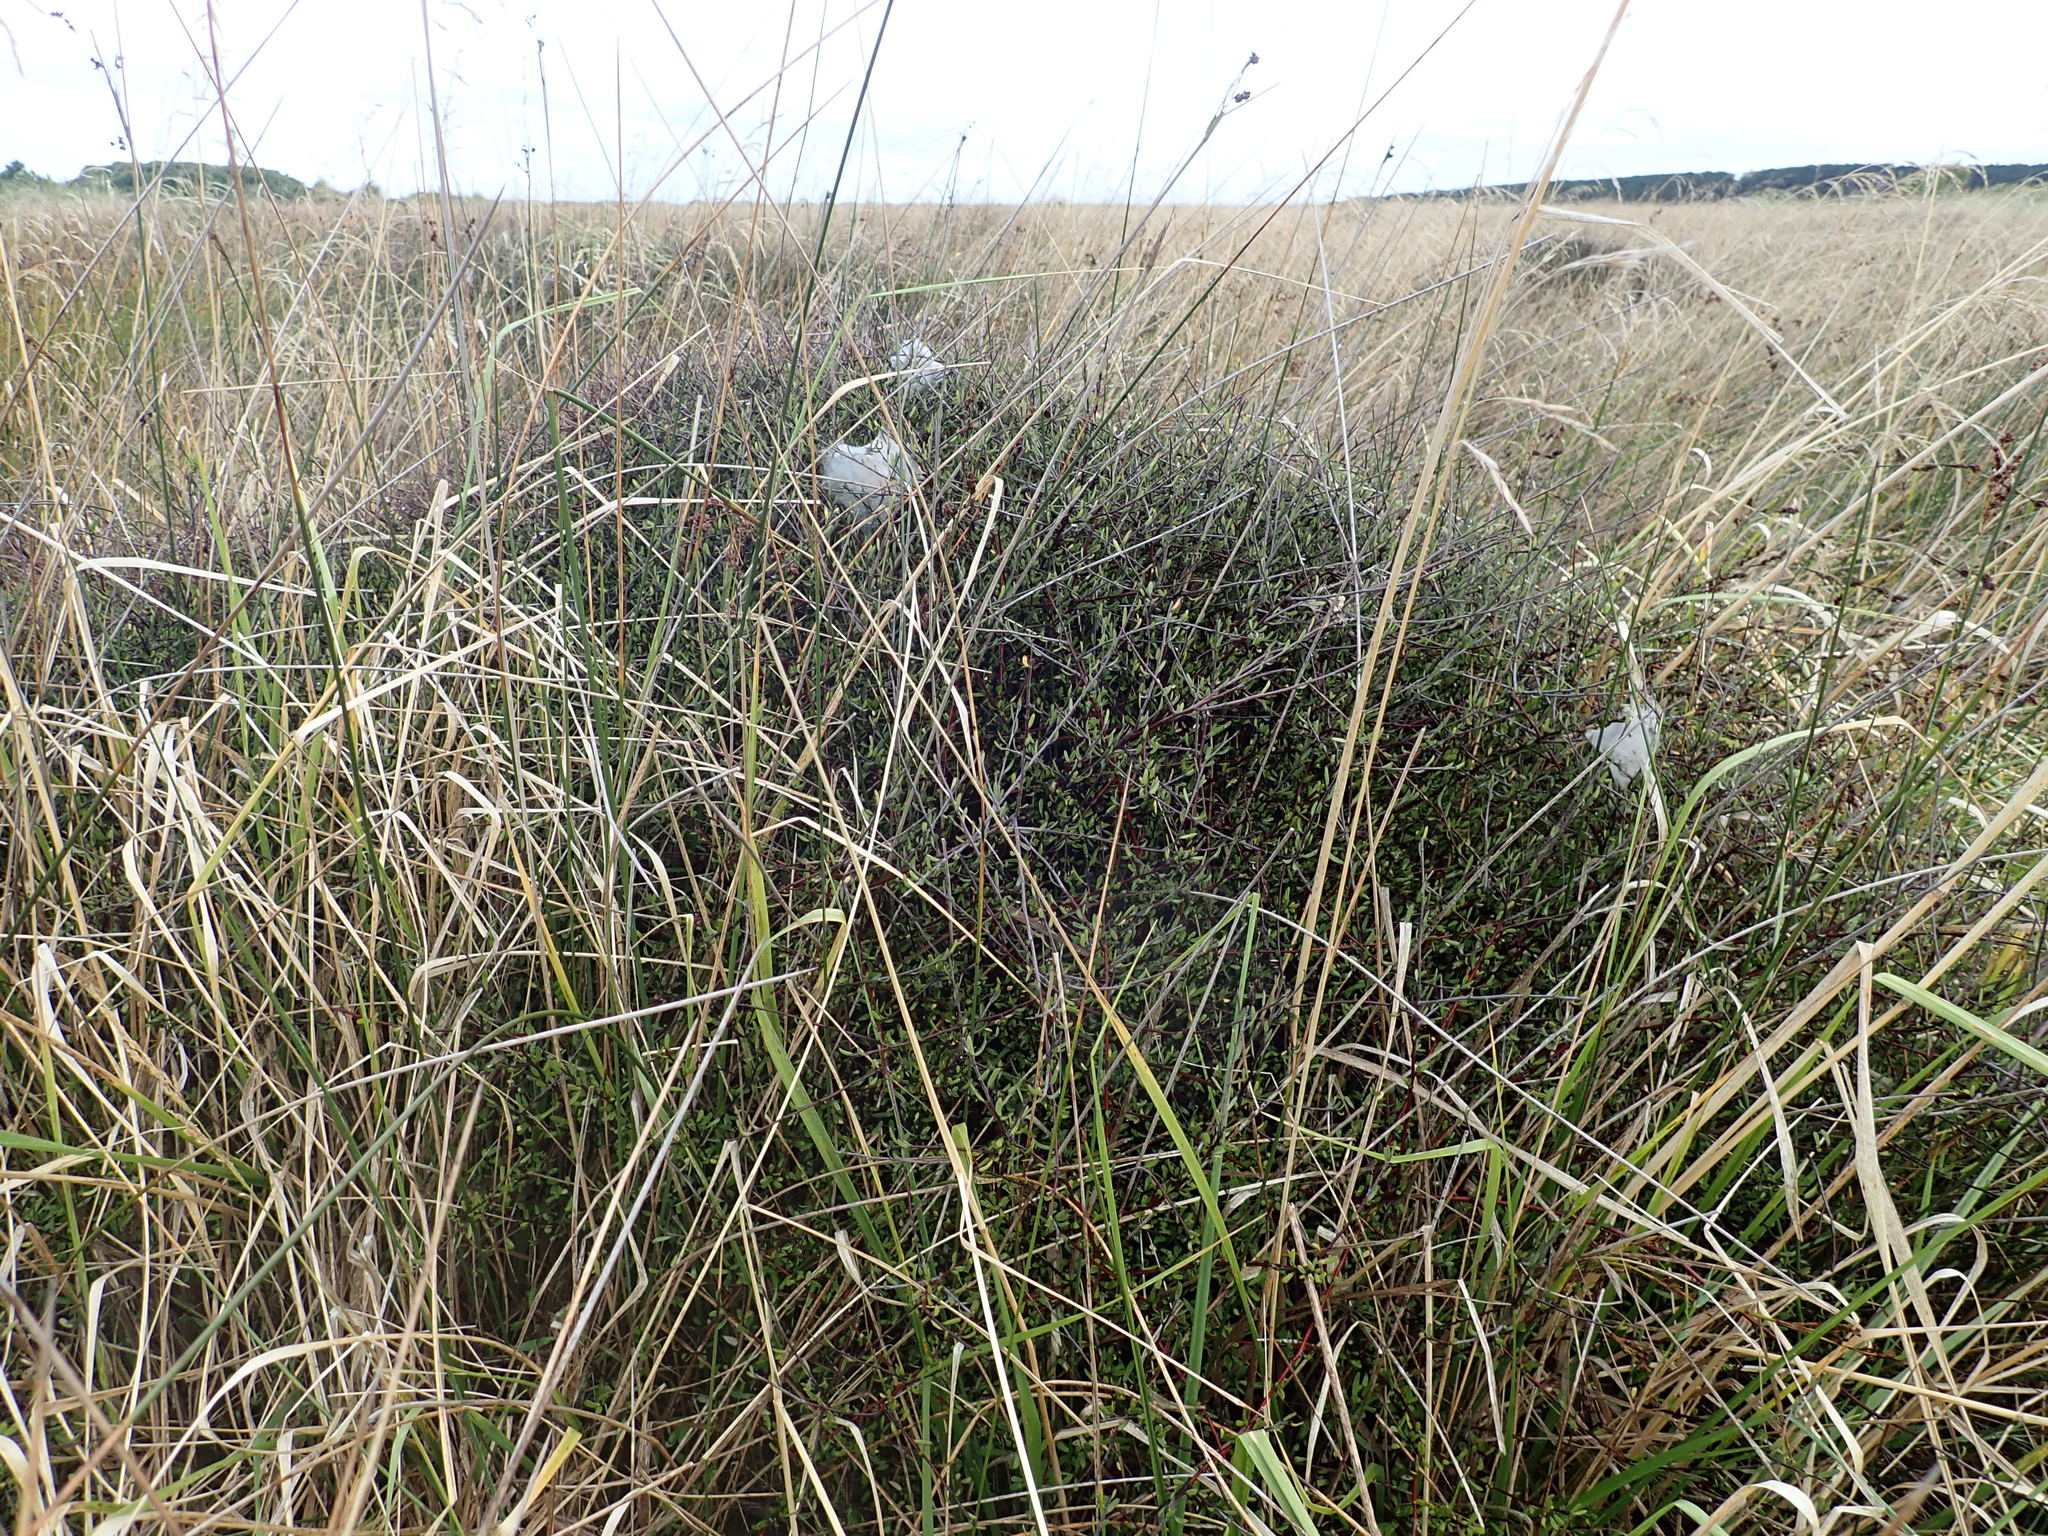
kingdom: Plantae
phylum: Tracheophyta
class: Magnoliopsida
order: Malvales
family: Malvaceae
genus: Plagianthus
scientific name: Plagianthus divaricatus
